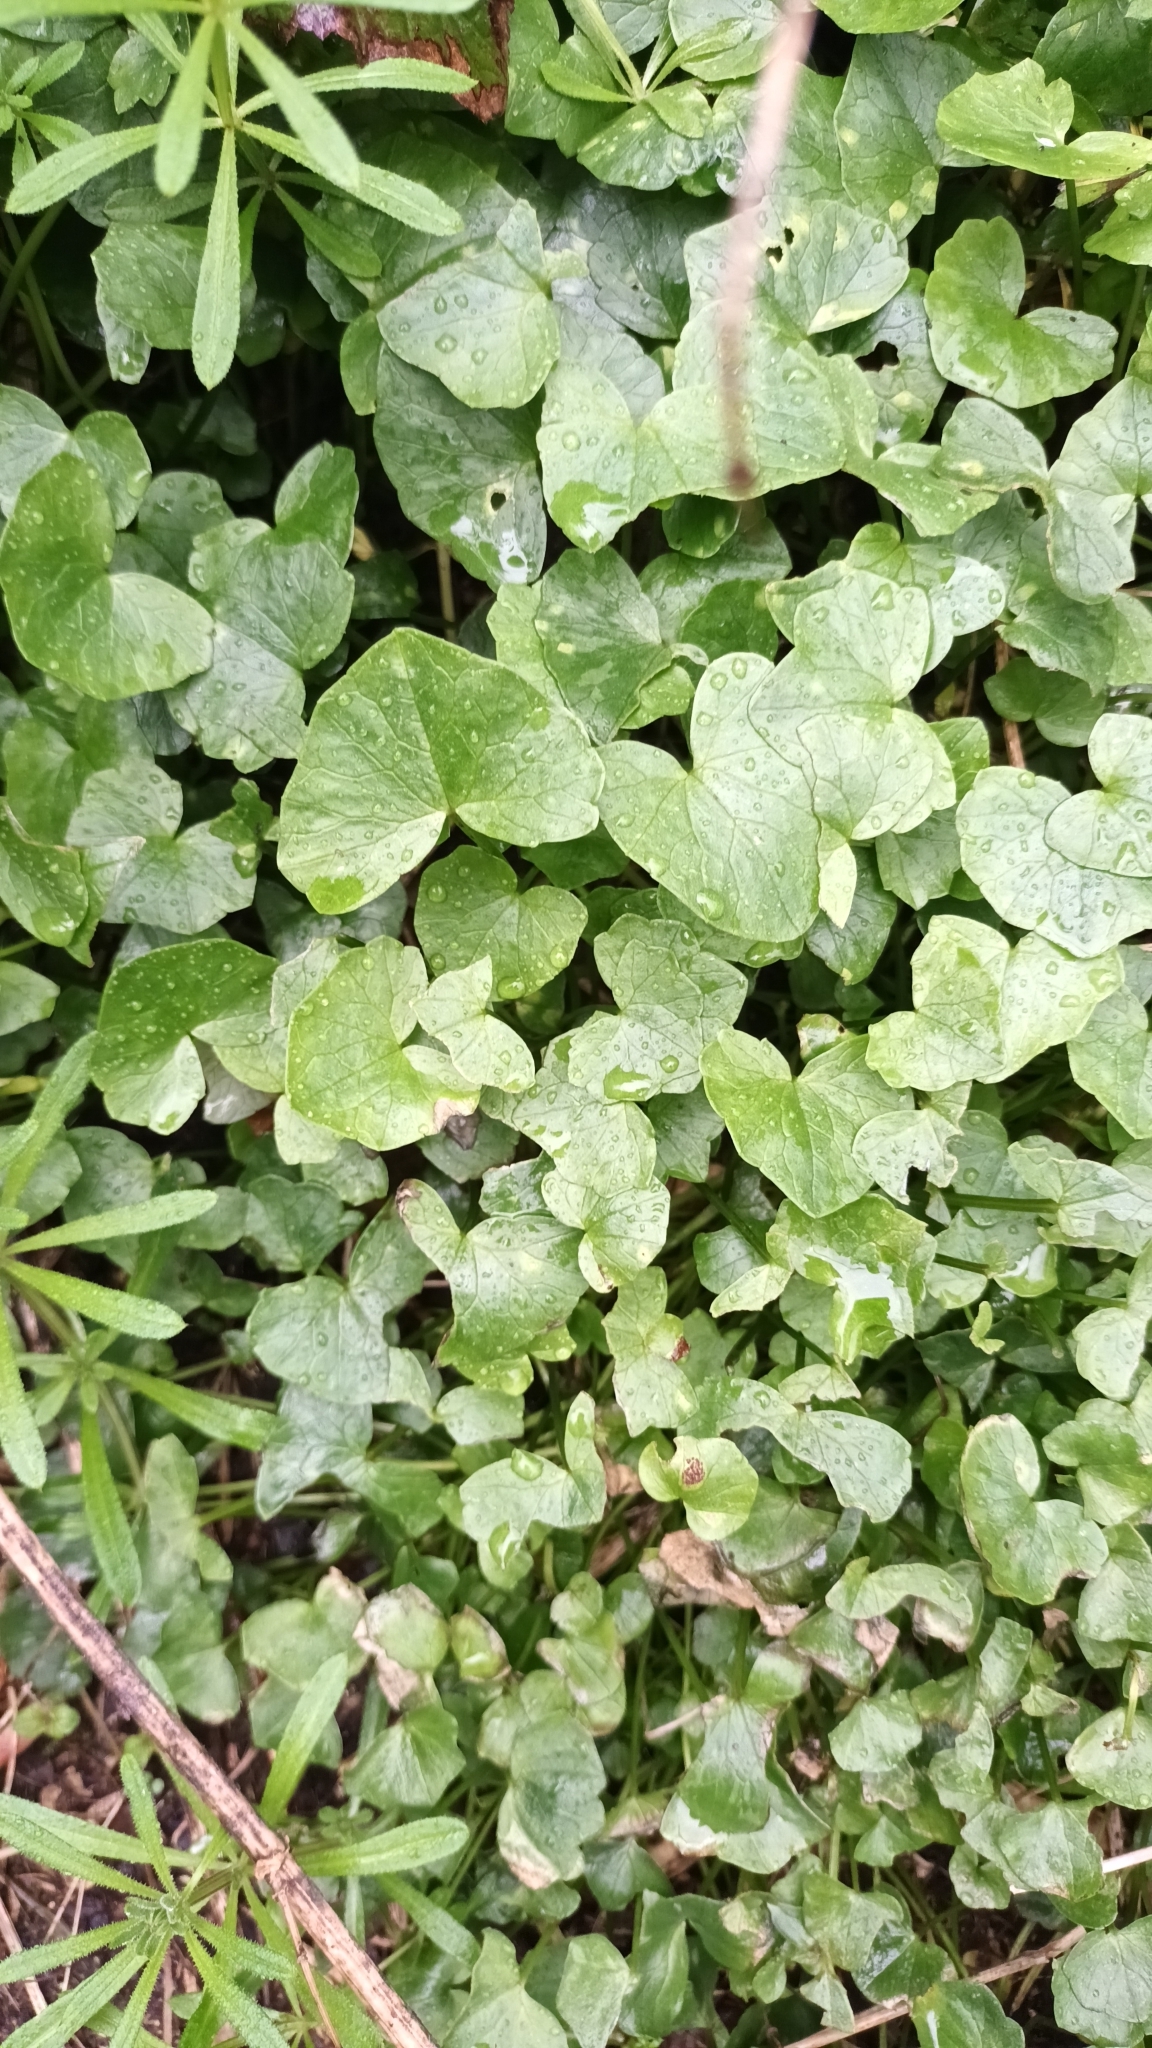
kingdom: Plantae
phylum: Tracheophyta
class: Magnoliopsida
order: Ranunculales
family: Ranunculaceae
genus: Ficaria
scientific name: Ficaria verna
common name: Lesser celandine
